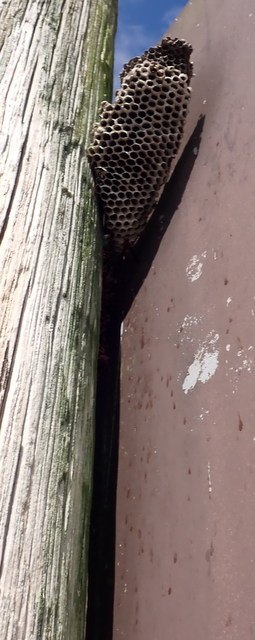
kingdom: Animalia
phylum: Arthropoda
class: Insecta
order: Hymenoptera
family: Eumenidae
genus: Polistes
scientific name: Polistes annularis
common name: Ringed paper wasp
